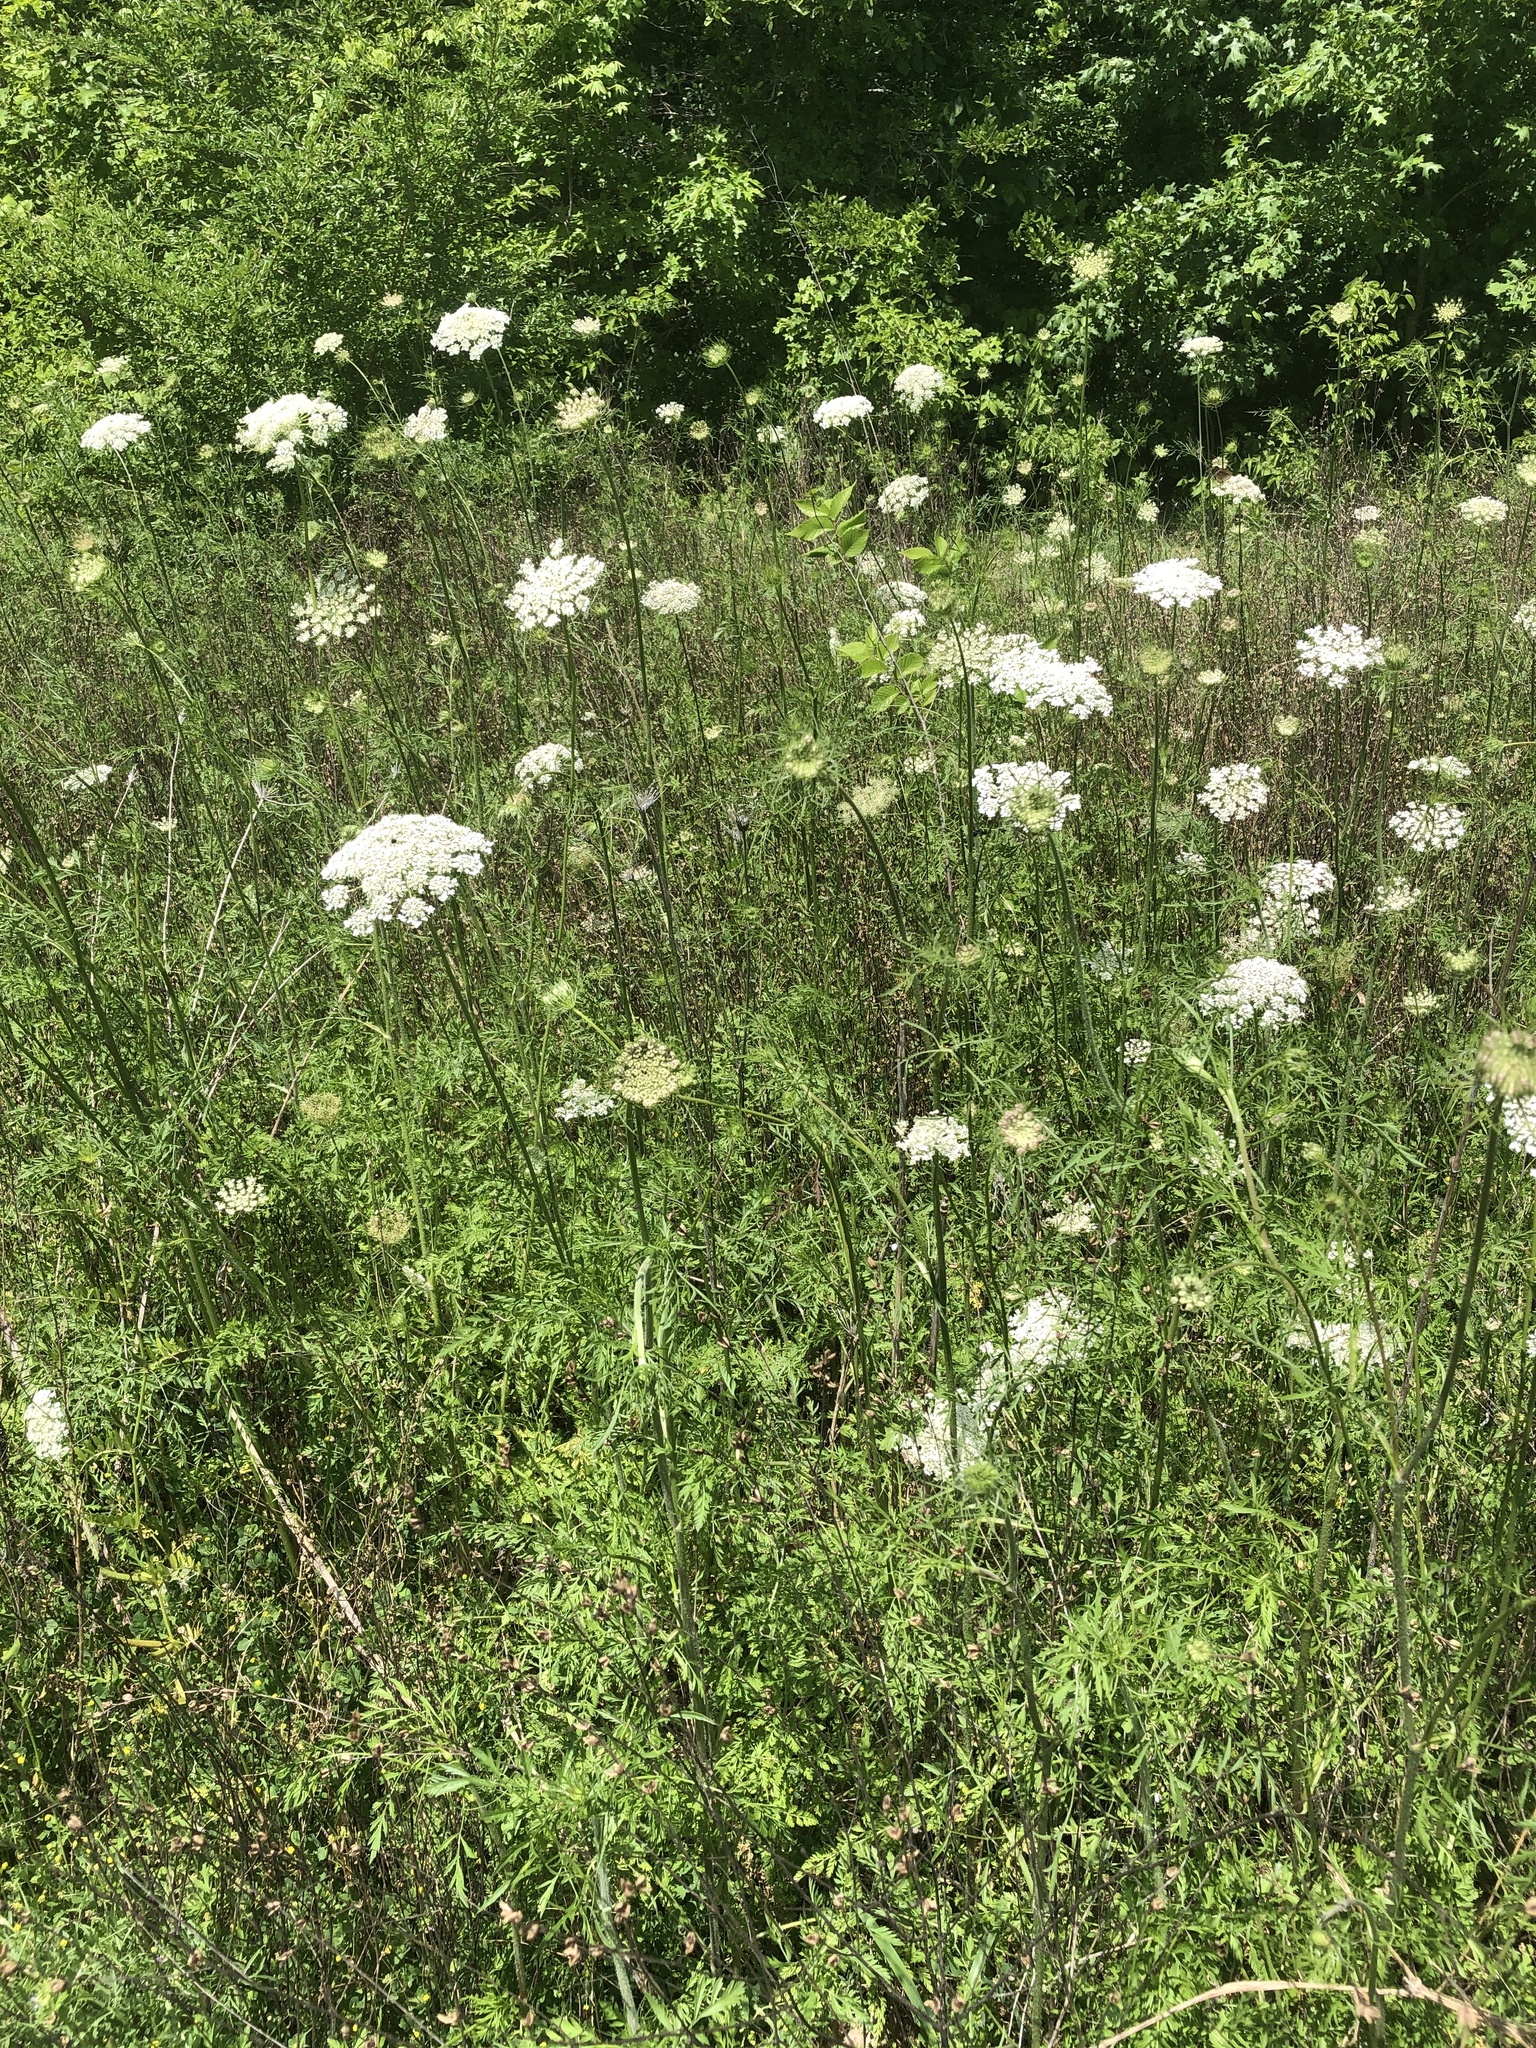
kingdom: Plantae
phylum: Tracheophyta
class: Magnoliopsida
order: Apiales
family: Apiaceae
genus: Daucus
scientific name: Daucus carota
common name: Wild carrot
